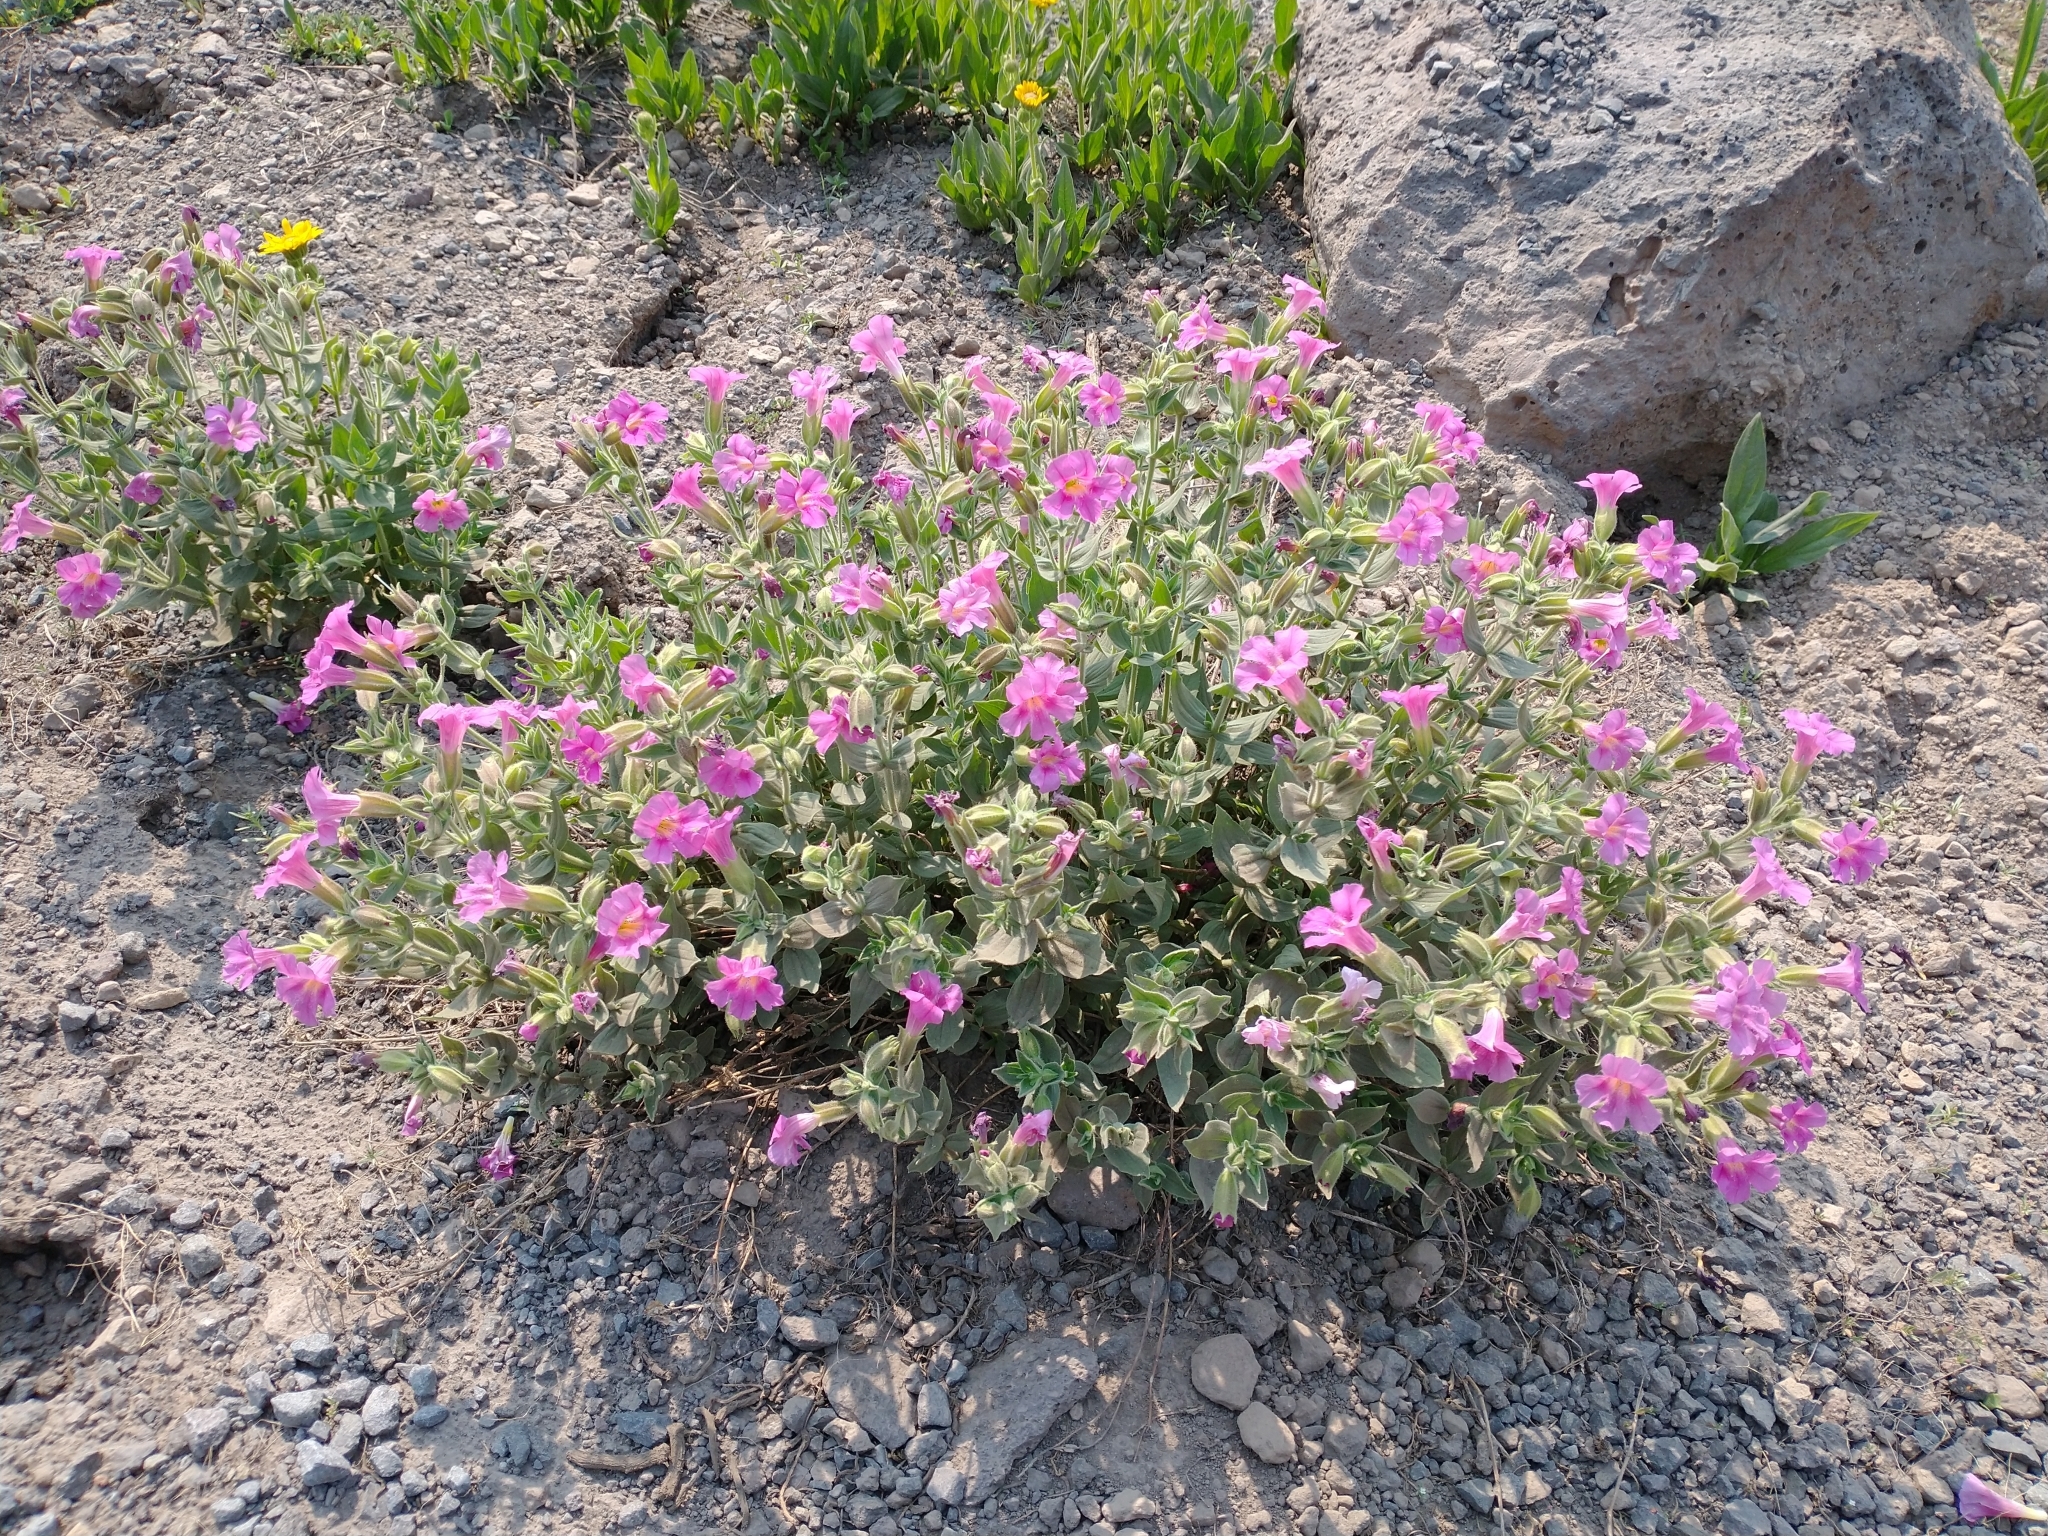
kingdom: Plantae
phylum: Tracheophyta
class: Magnoliopsida
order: Lamiales
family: Phrymaceae
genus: Erythranthe
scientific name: Erythranthe lewisii
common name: Lewis's monkey-flower
